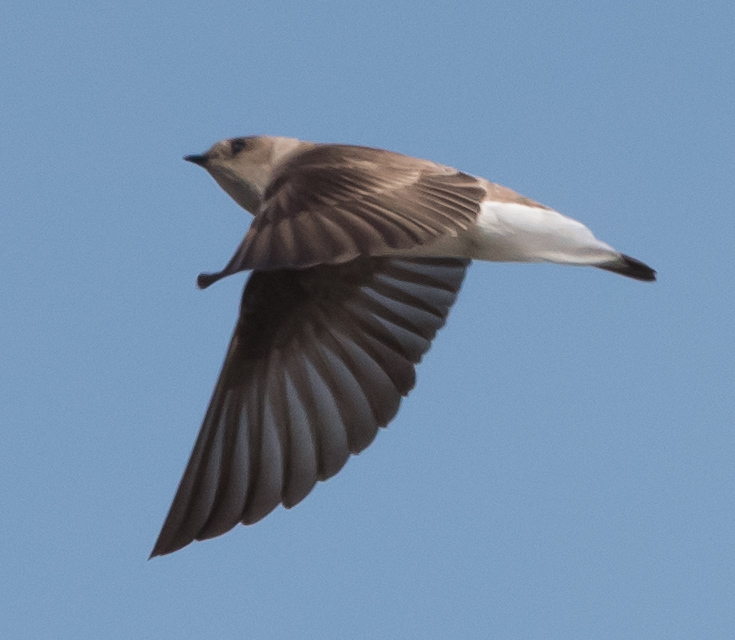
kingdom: Animalia
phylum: Chordata
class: Aves
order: Passeriformes
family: Hirundinidae
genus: Stelgidopteryx
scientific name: Stelgidopteryx serripennis
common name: Northern rough-winged swallow
